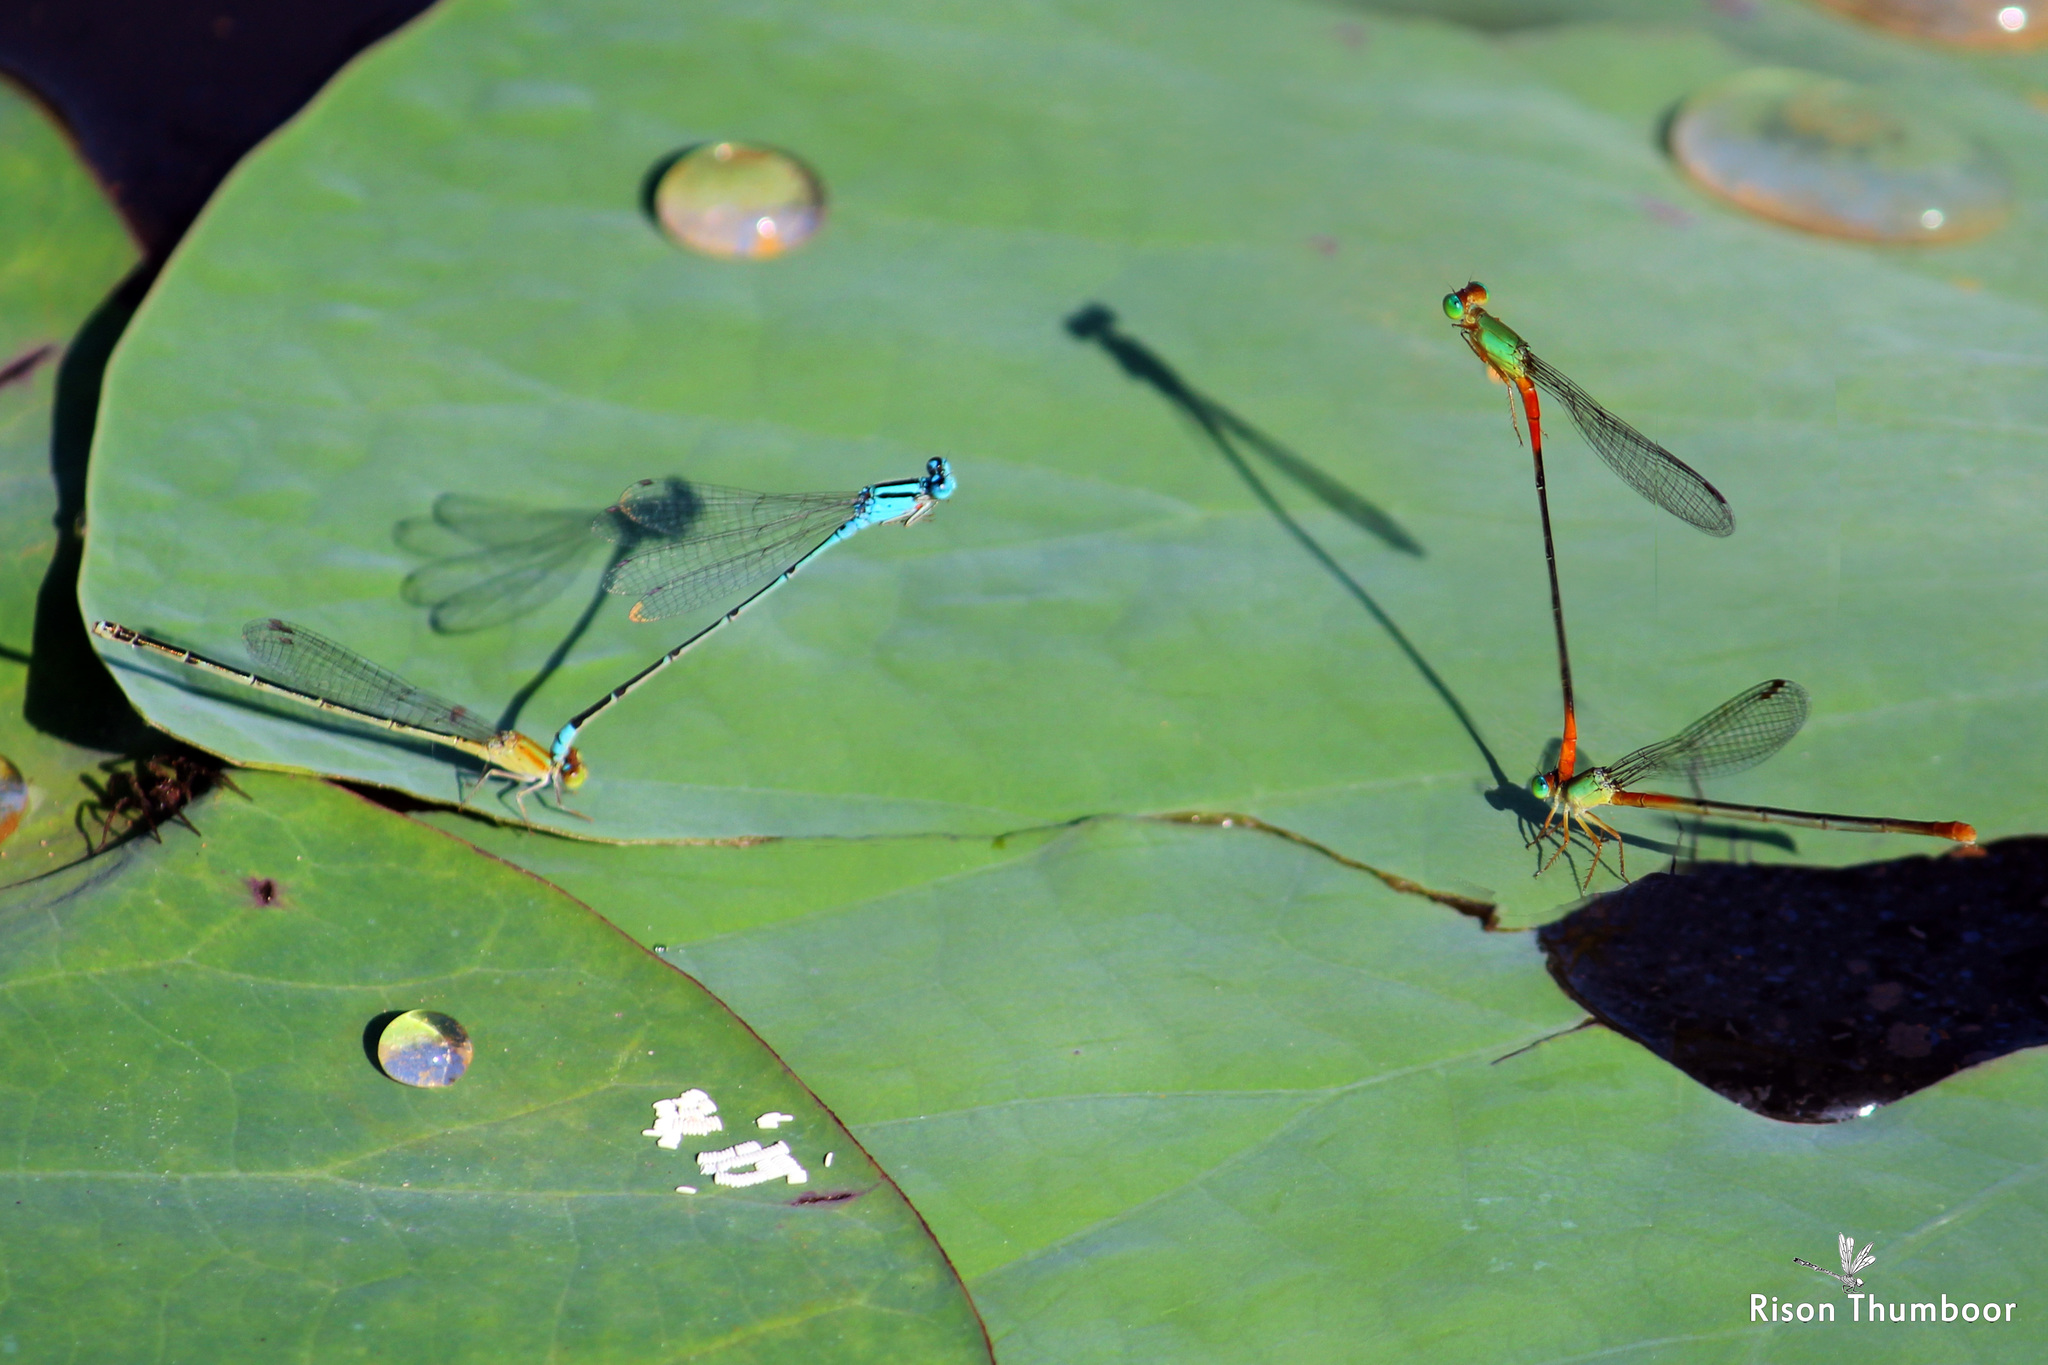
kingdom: Animalia
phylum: Arthropoda
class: Insecta
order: Odonata
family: Coenagrionidae
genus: Pseudagrion
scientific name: Pseudagrion microcephalum
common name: Blue riverdamsel
